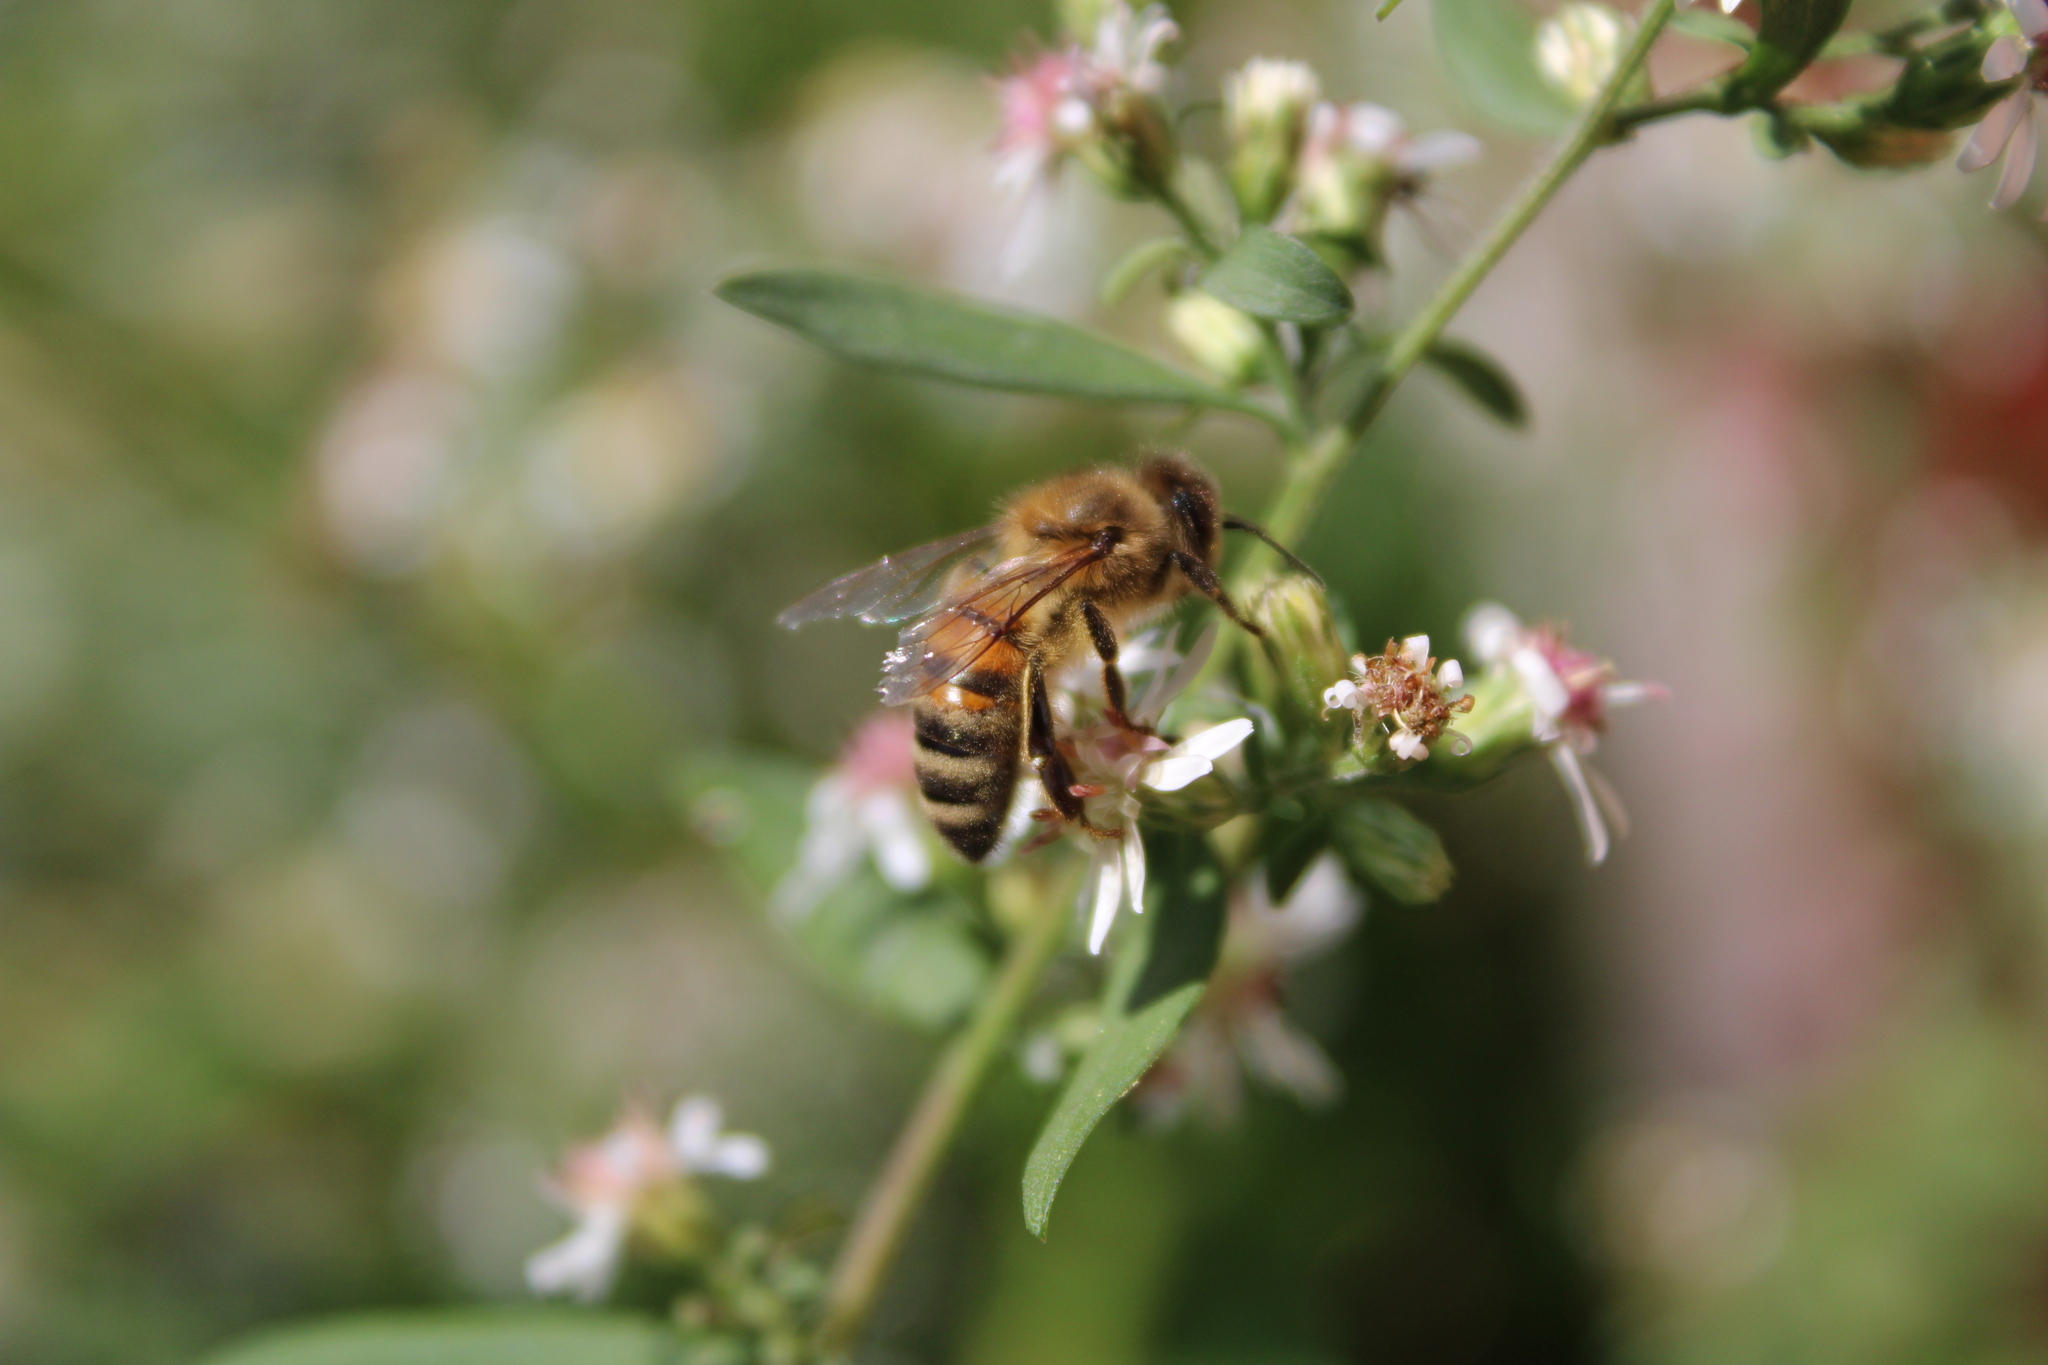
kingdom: Animalia
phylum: Arthropoda
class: Insecta
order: Hymenoptera
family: Apidae
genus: Apis
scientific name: Apis mellifera
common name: Honey bee
